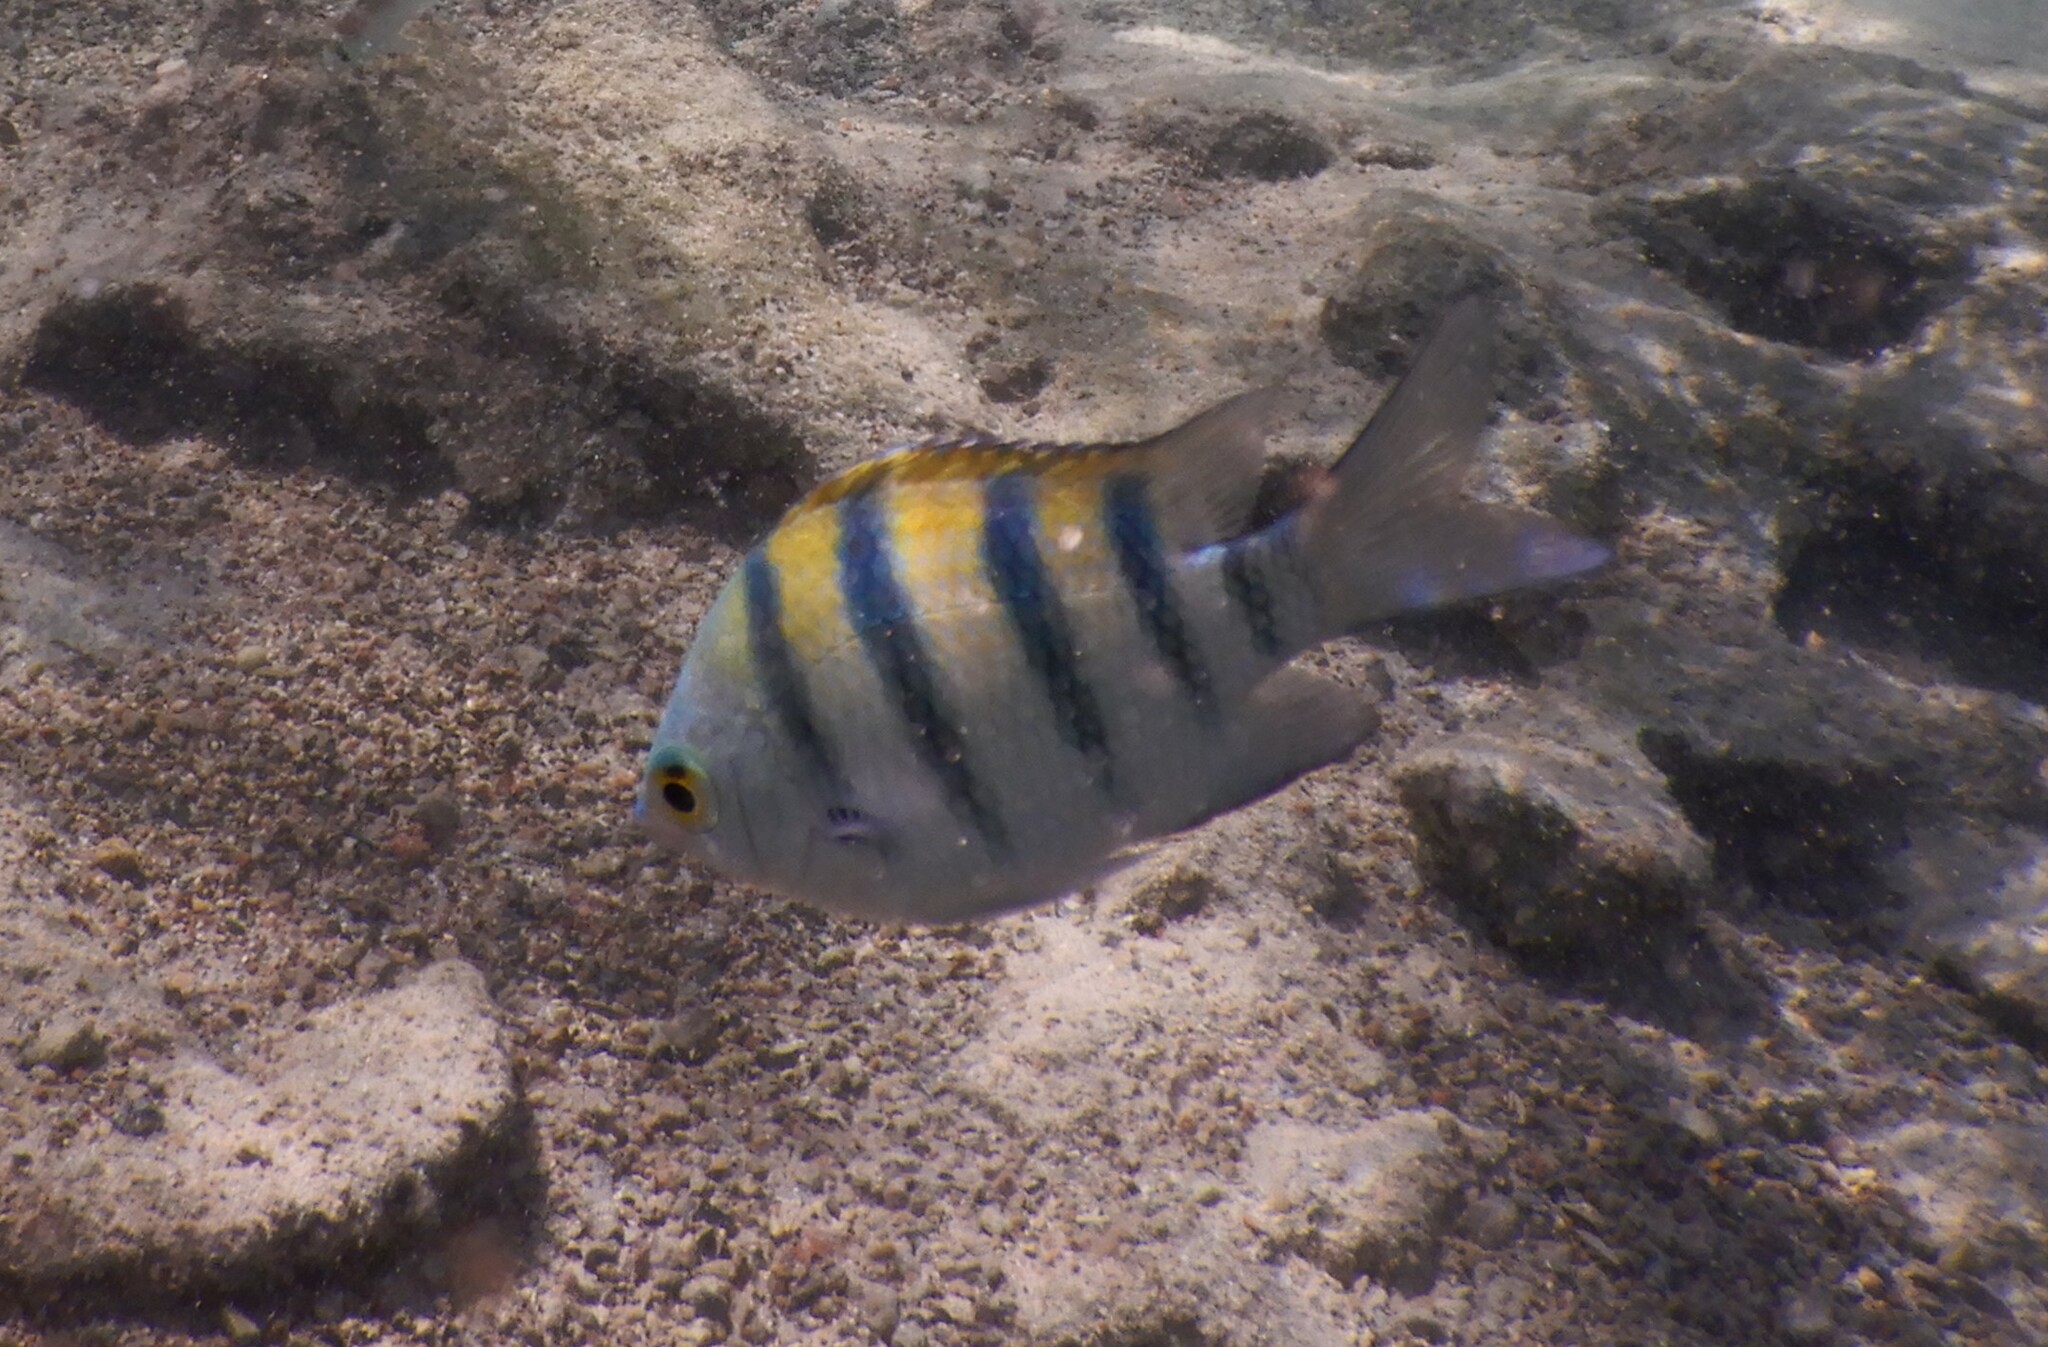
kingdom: Animalia
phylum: Chordata
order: Perciformes
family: Pomacentridae
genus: Abudefduf
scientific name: Abudefduf vaigiensis
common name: Indo-pacific sergeant
